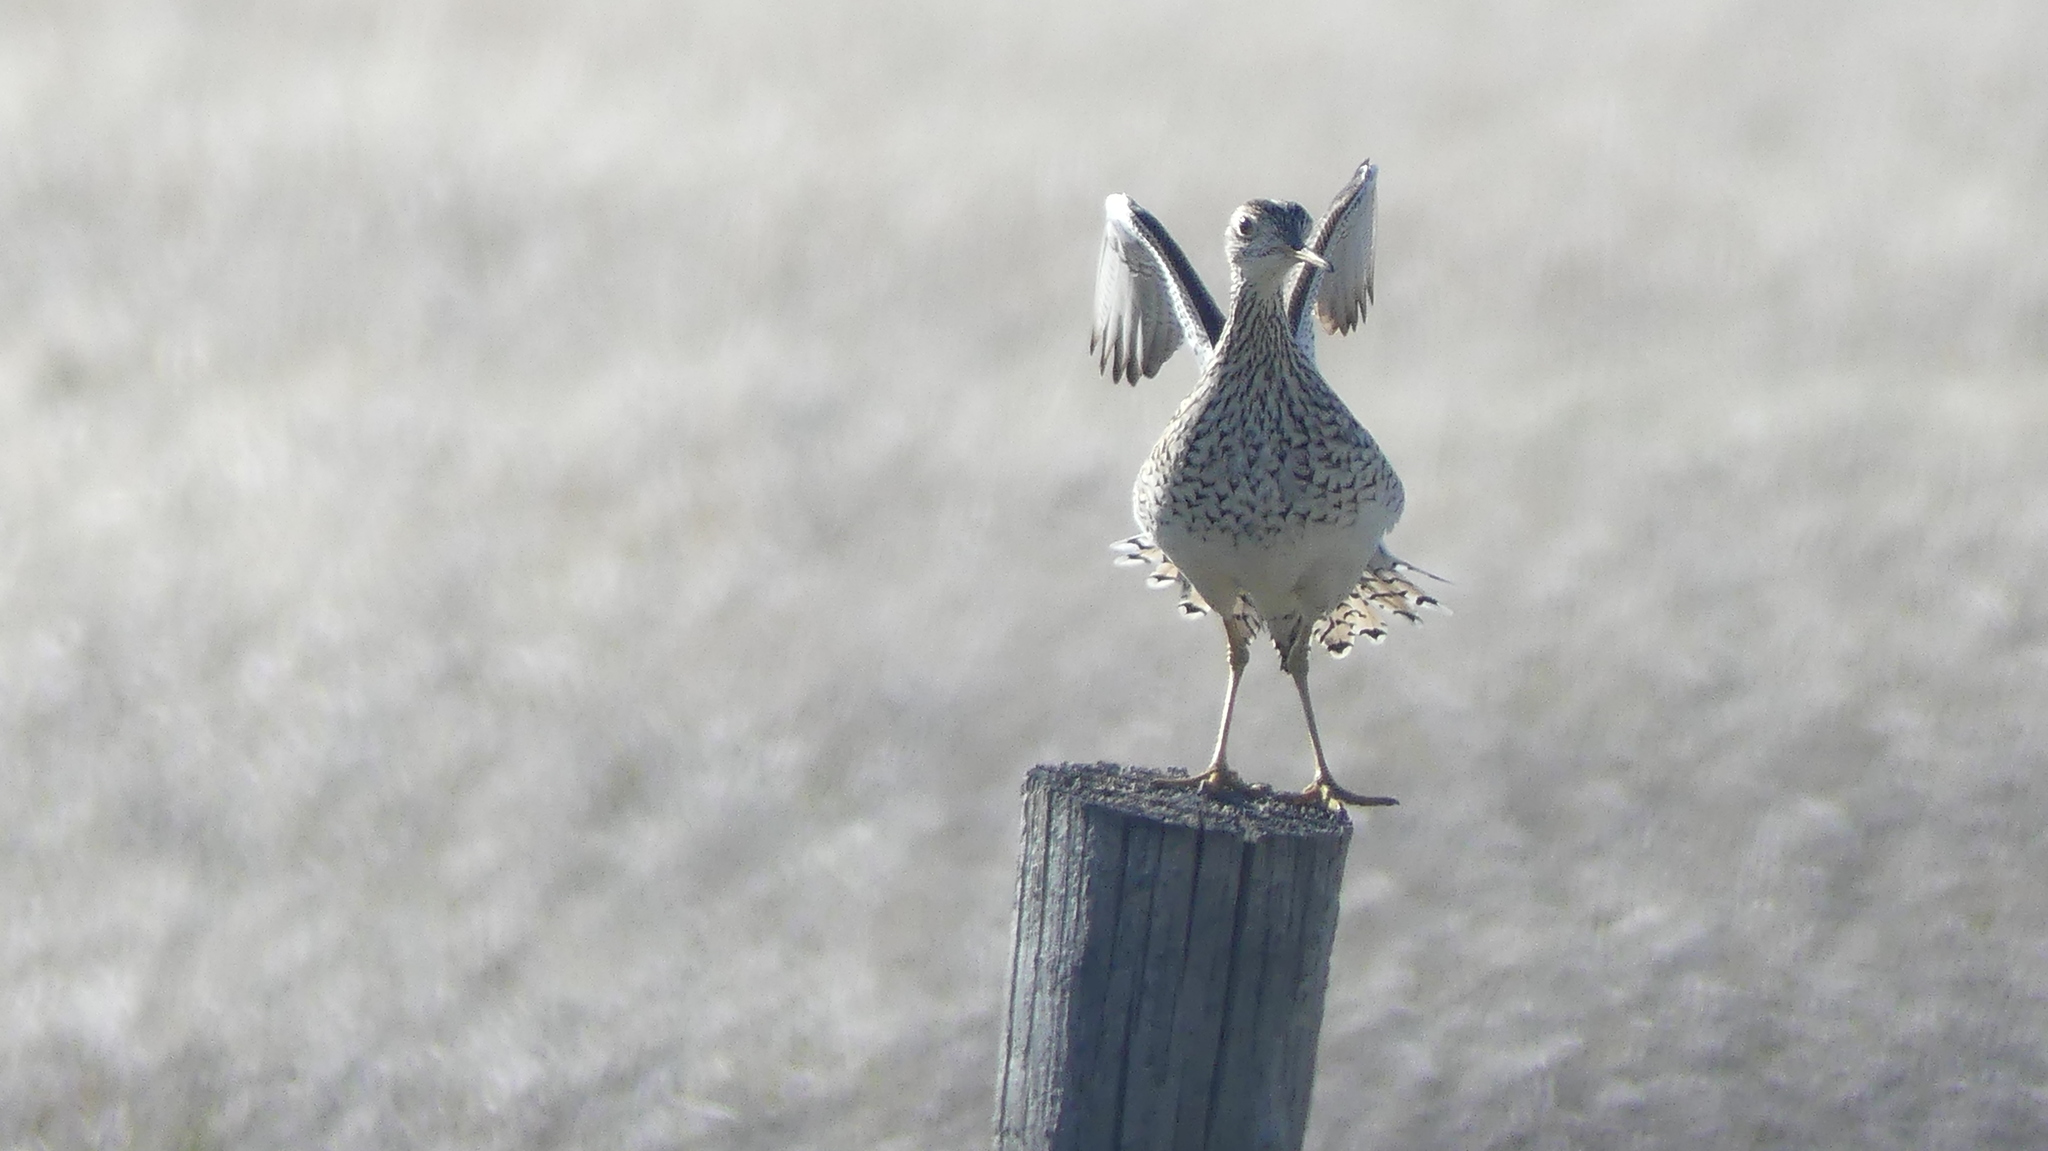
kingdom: Animalia
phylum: Chordata
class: Aves
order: Charadriiformes
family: Scolopacidae
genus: Bartramia
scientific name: Bartramia longicauda
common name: Upland sandpiper
